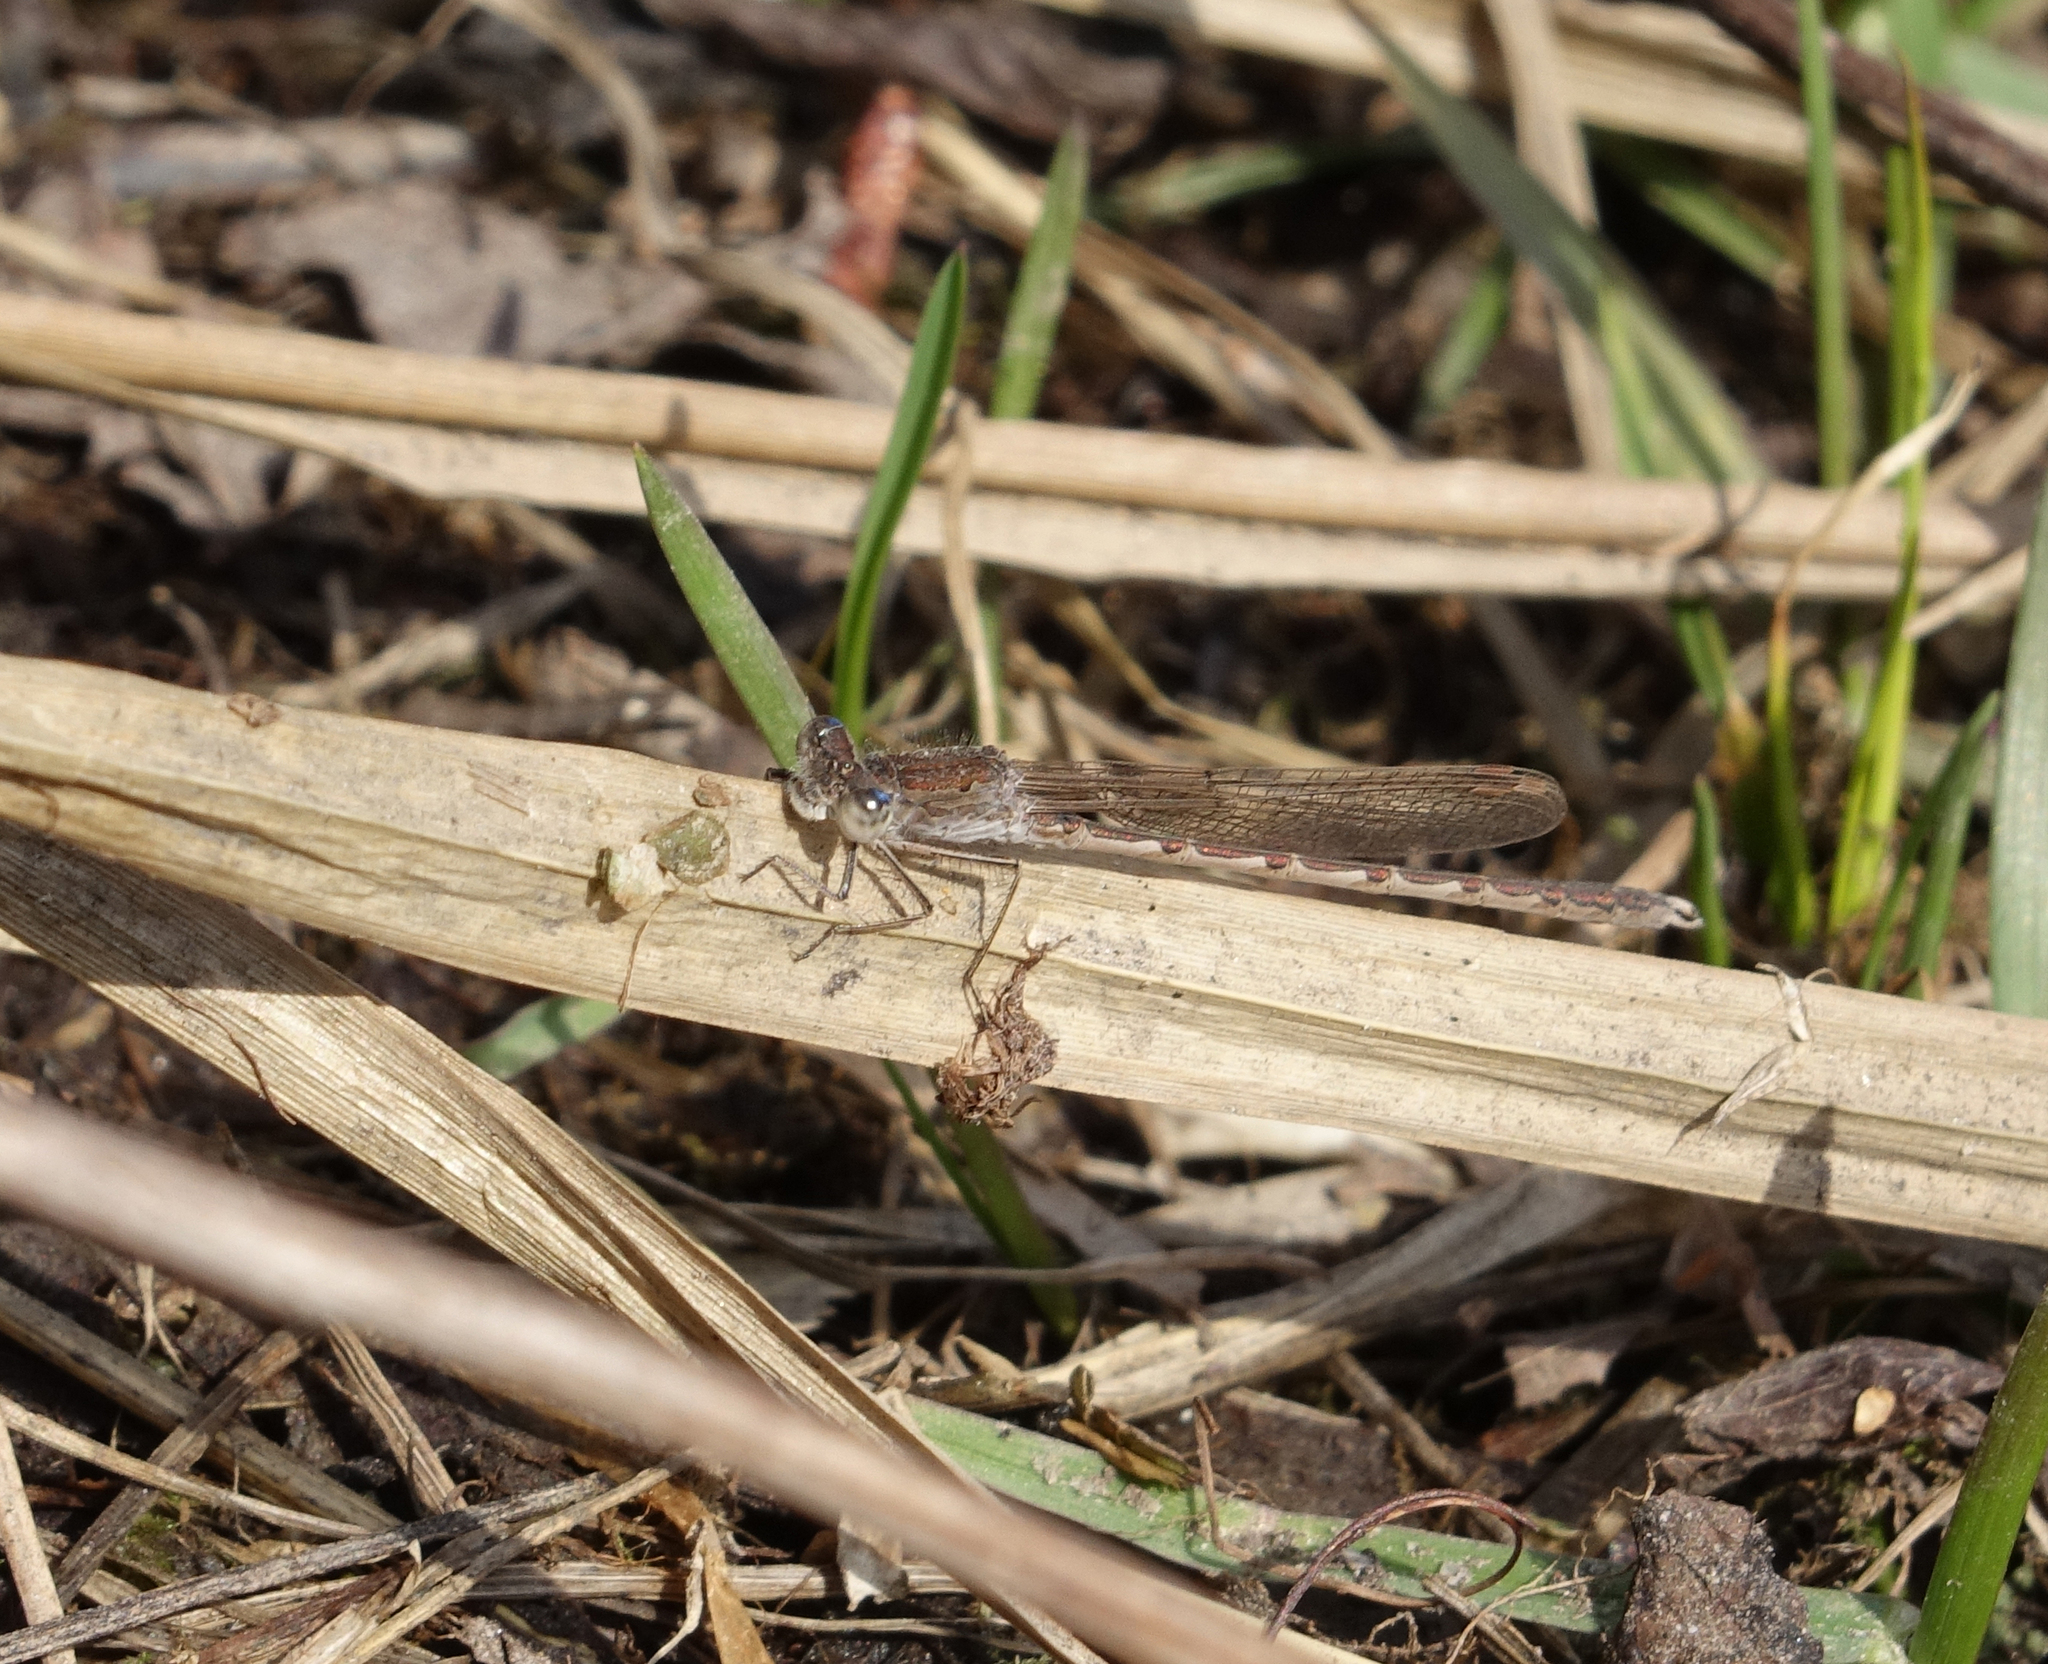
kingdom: Animalia
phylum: Arthropoda
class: Insecta
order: Odonata
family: Lestidae
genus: Sympecma
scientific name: Sympecma paedisca
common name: Siberian winter damsel
